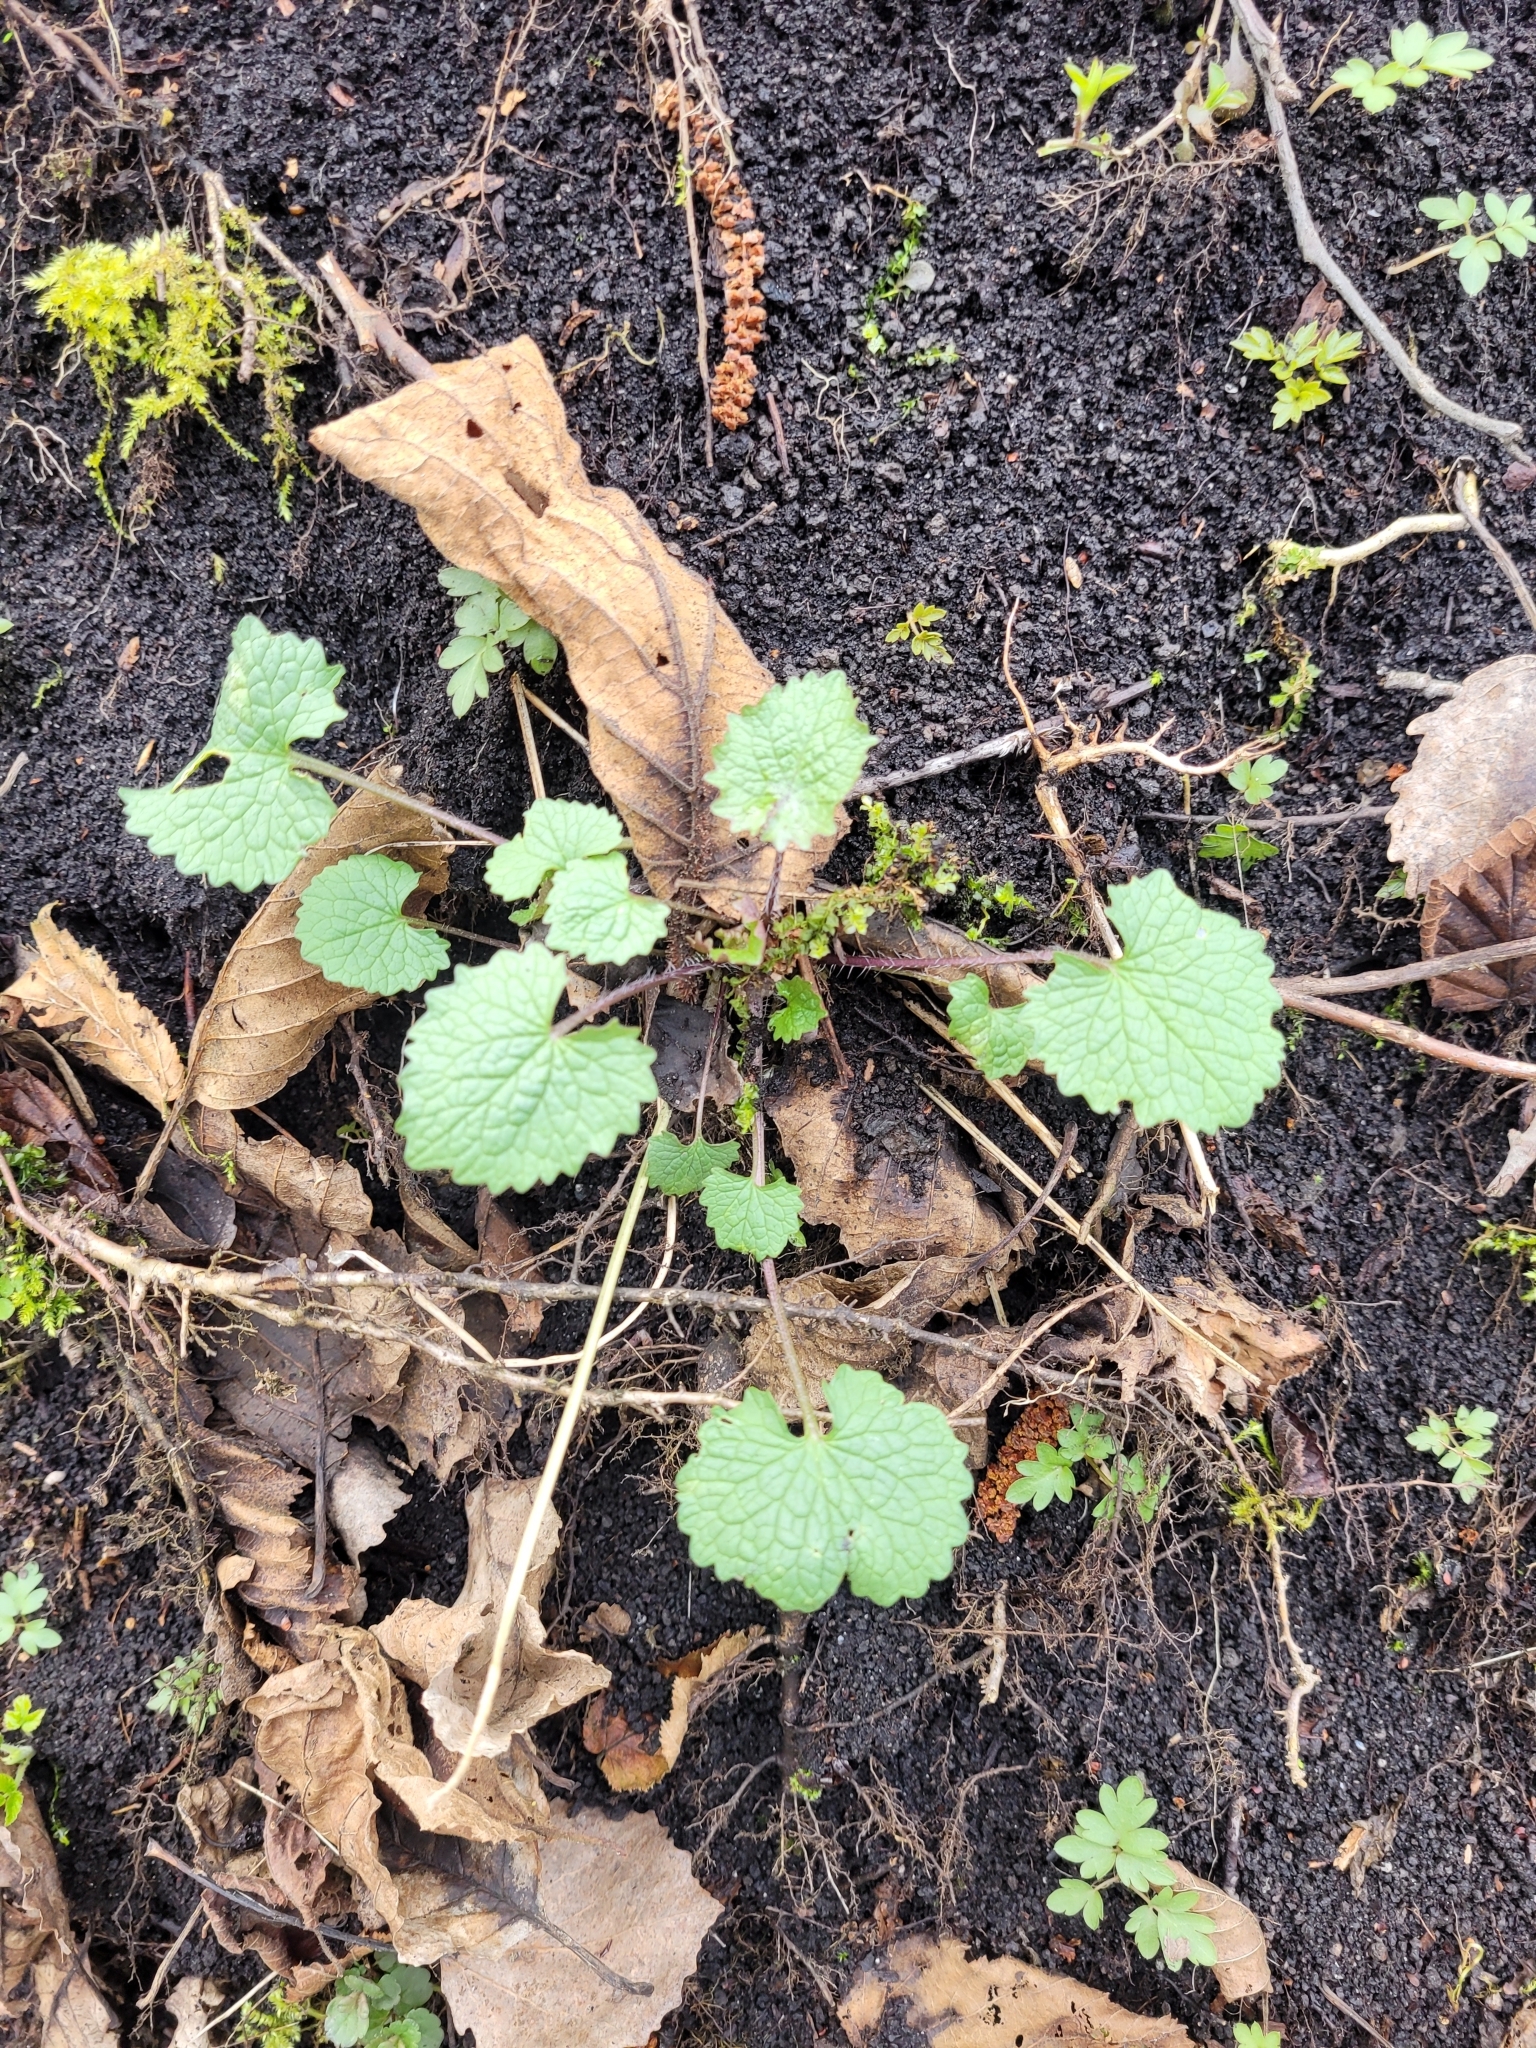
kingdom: Plantae
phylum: Tracheophyta
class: Magnoliopsida
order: Brassicales
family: Brassicaceae
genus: Alliaria
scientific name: Alliaria petiolata
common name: Garlic mustard
